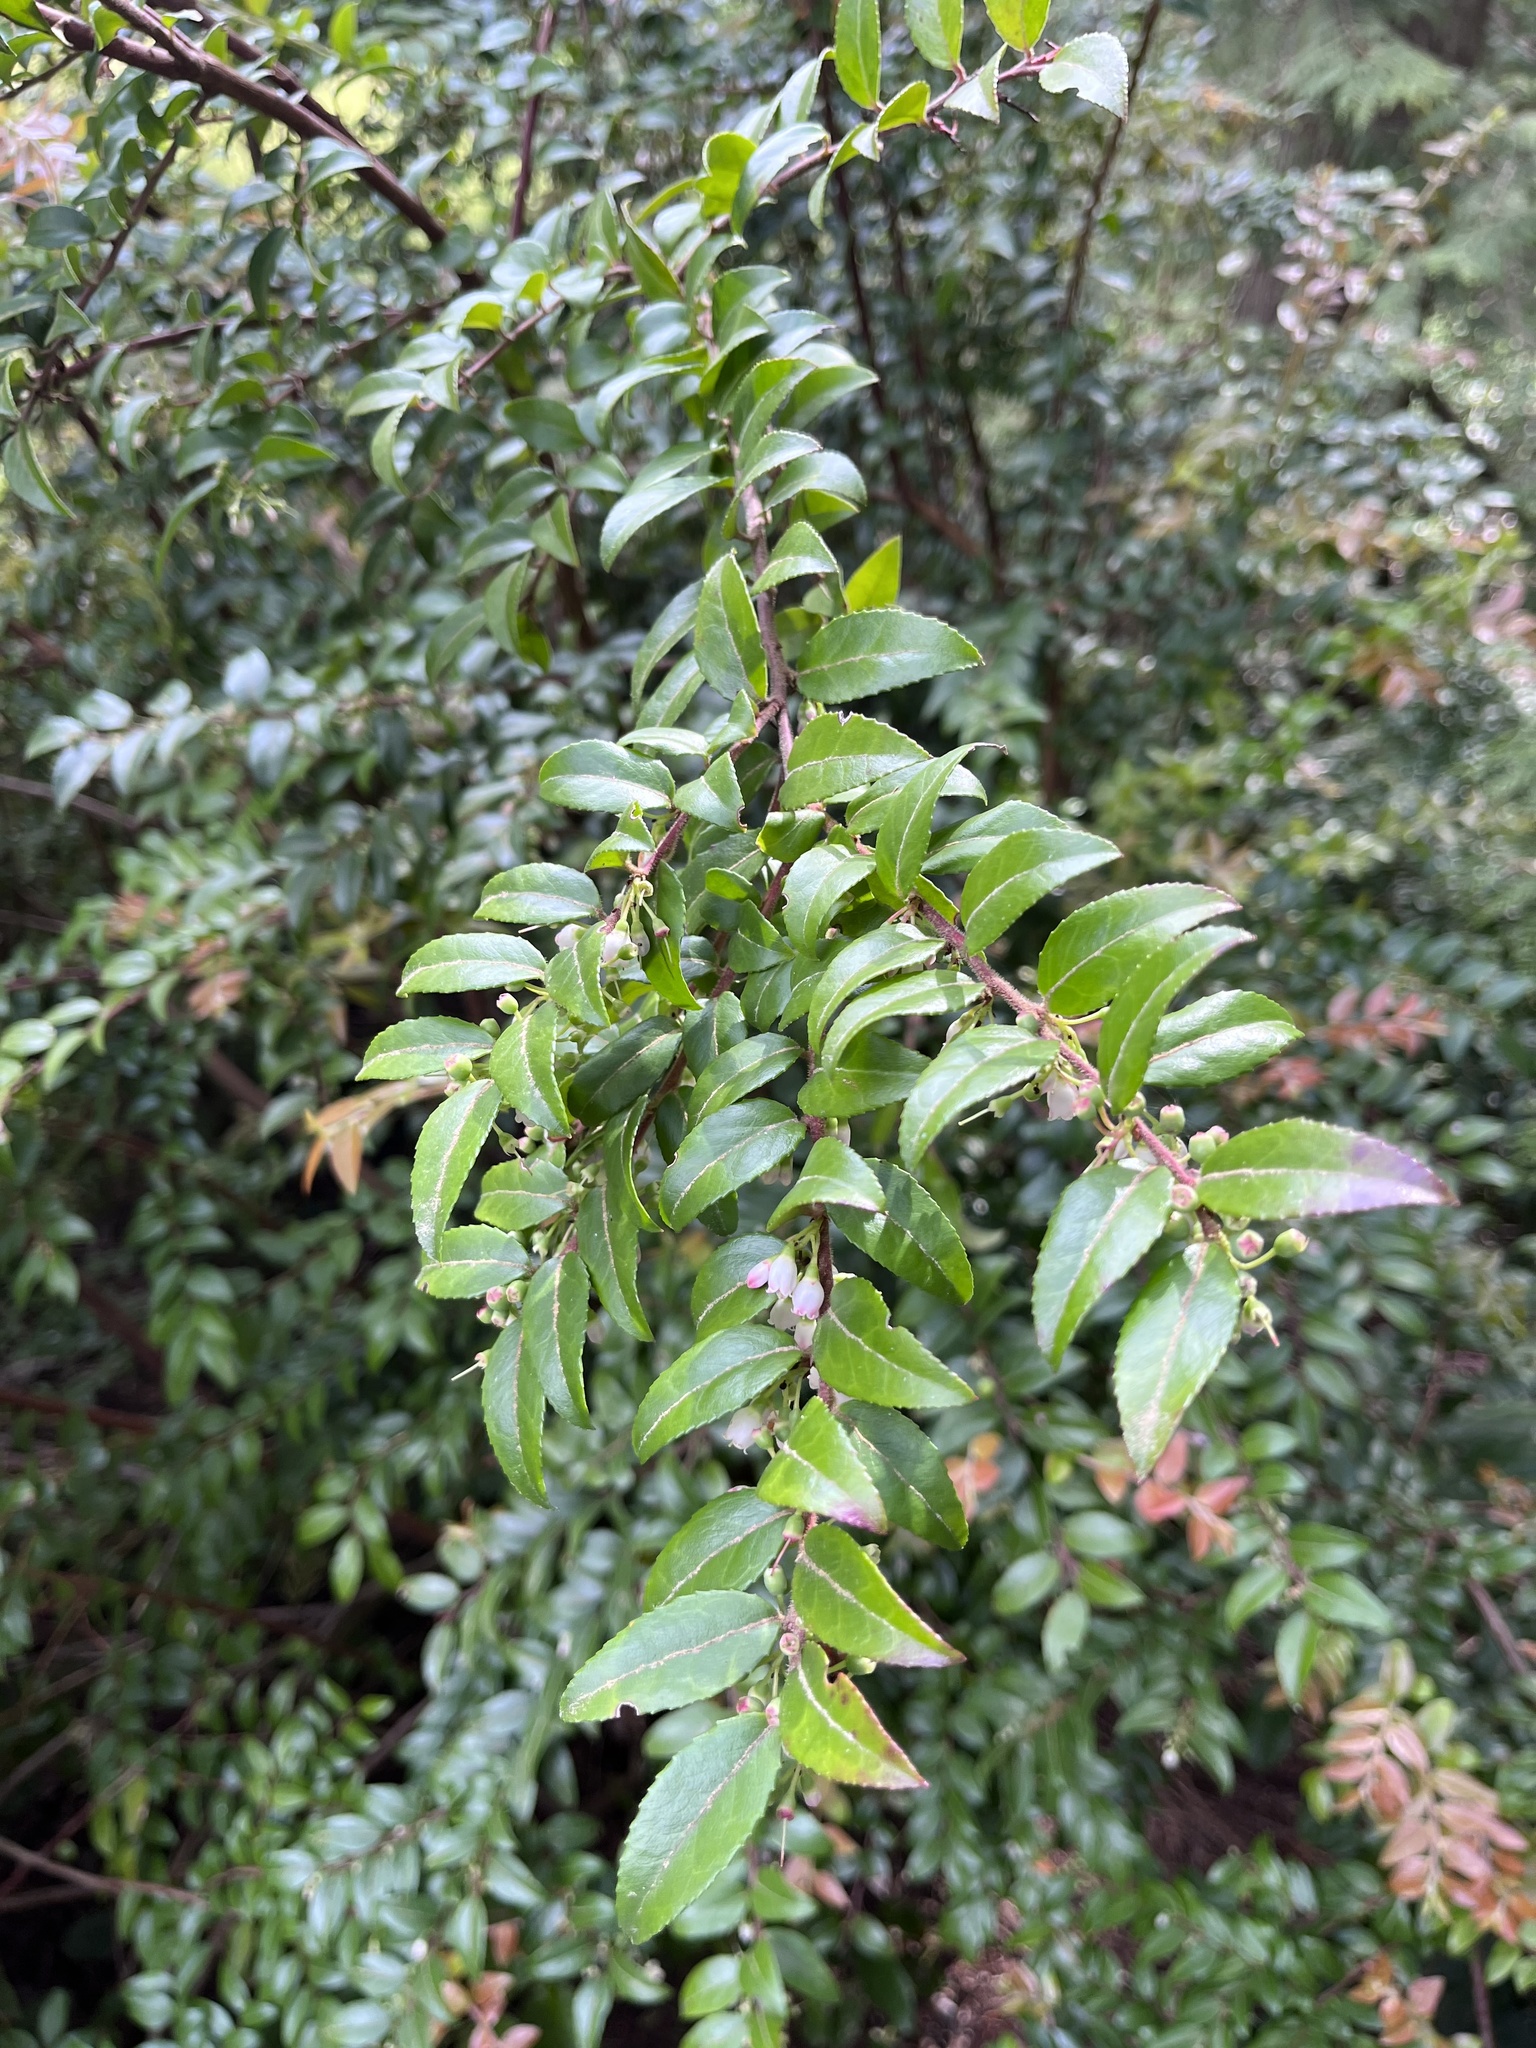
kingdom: Plantae
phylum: Tracheophyta
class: Magnoliopsida
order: Ericales
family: Ericaceae
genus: Vaccinium
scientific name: Vaccinium ovatum
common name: California-huckleberry
